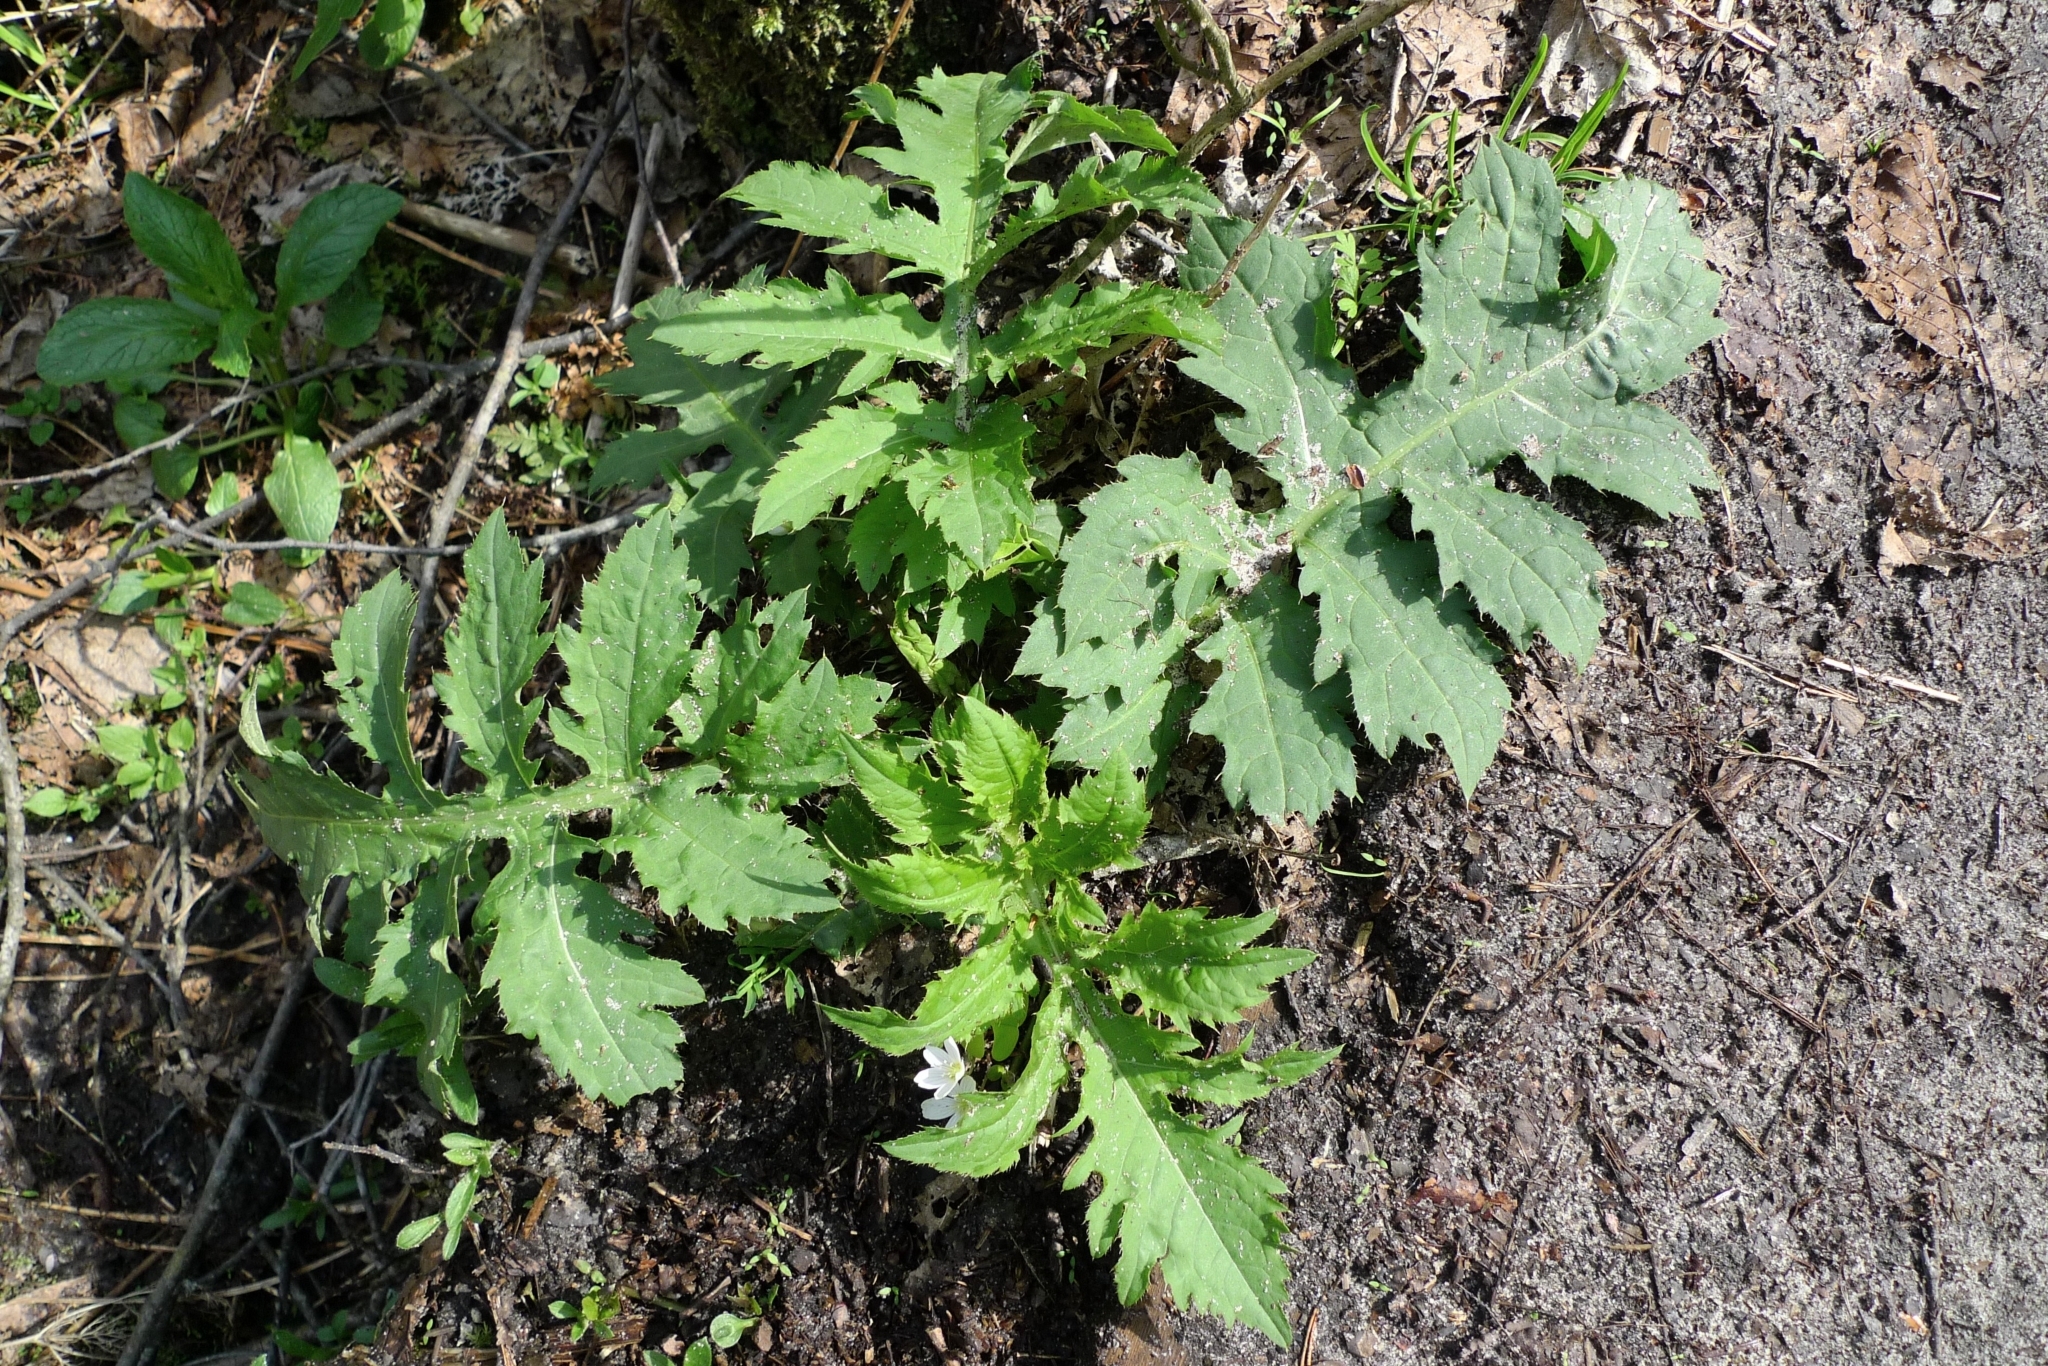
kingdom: Plantae
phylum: Tracheophyta
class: Magnoliopsida
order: Asterales
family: Asteraceae
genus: Cirsium
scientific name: Cirsium oleraceum
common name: Cabbage thistle
